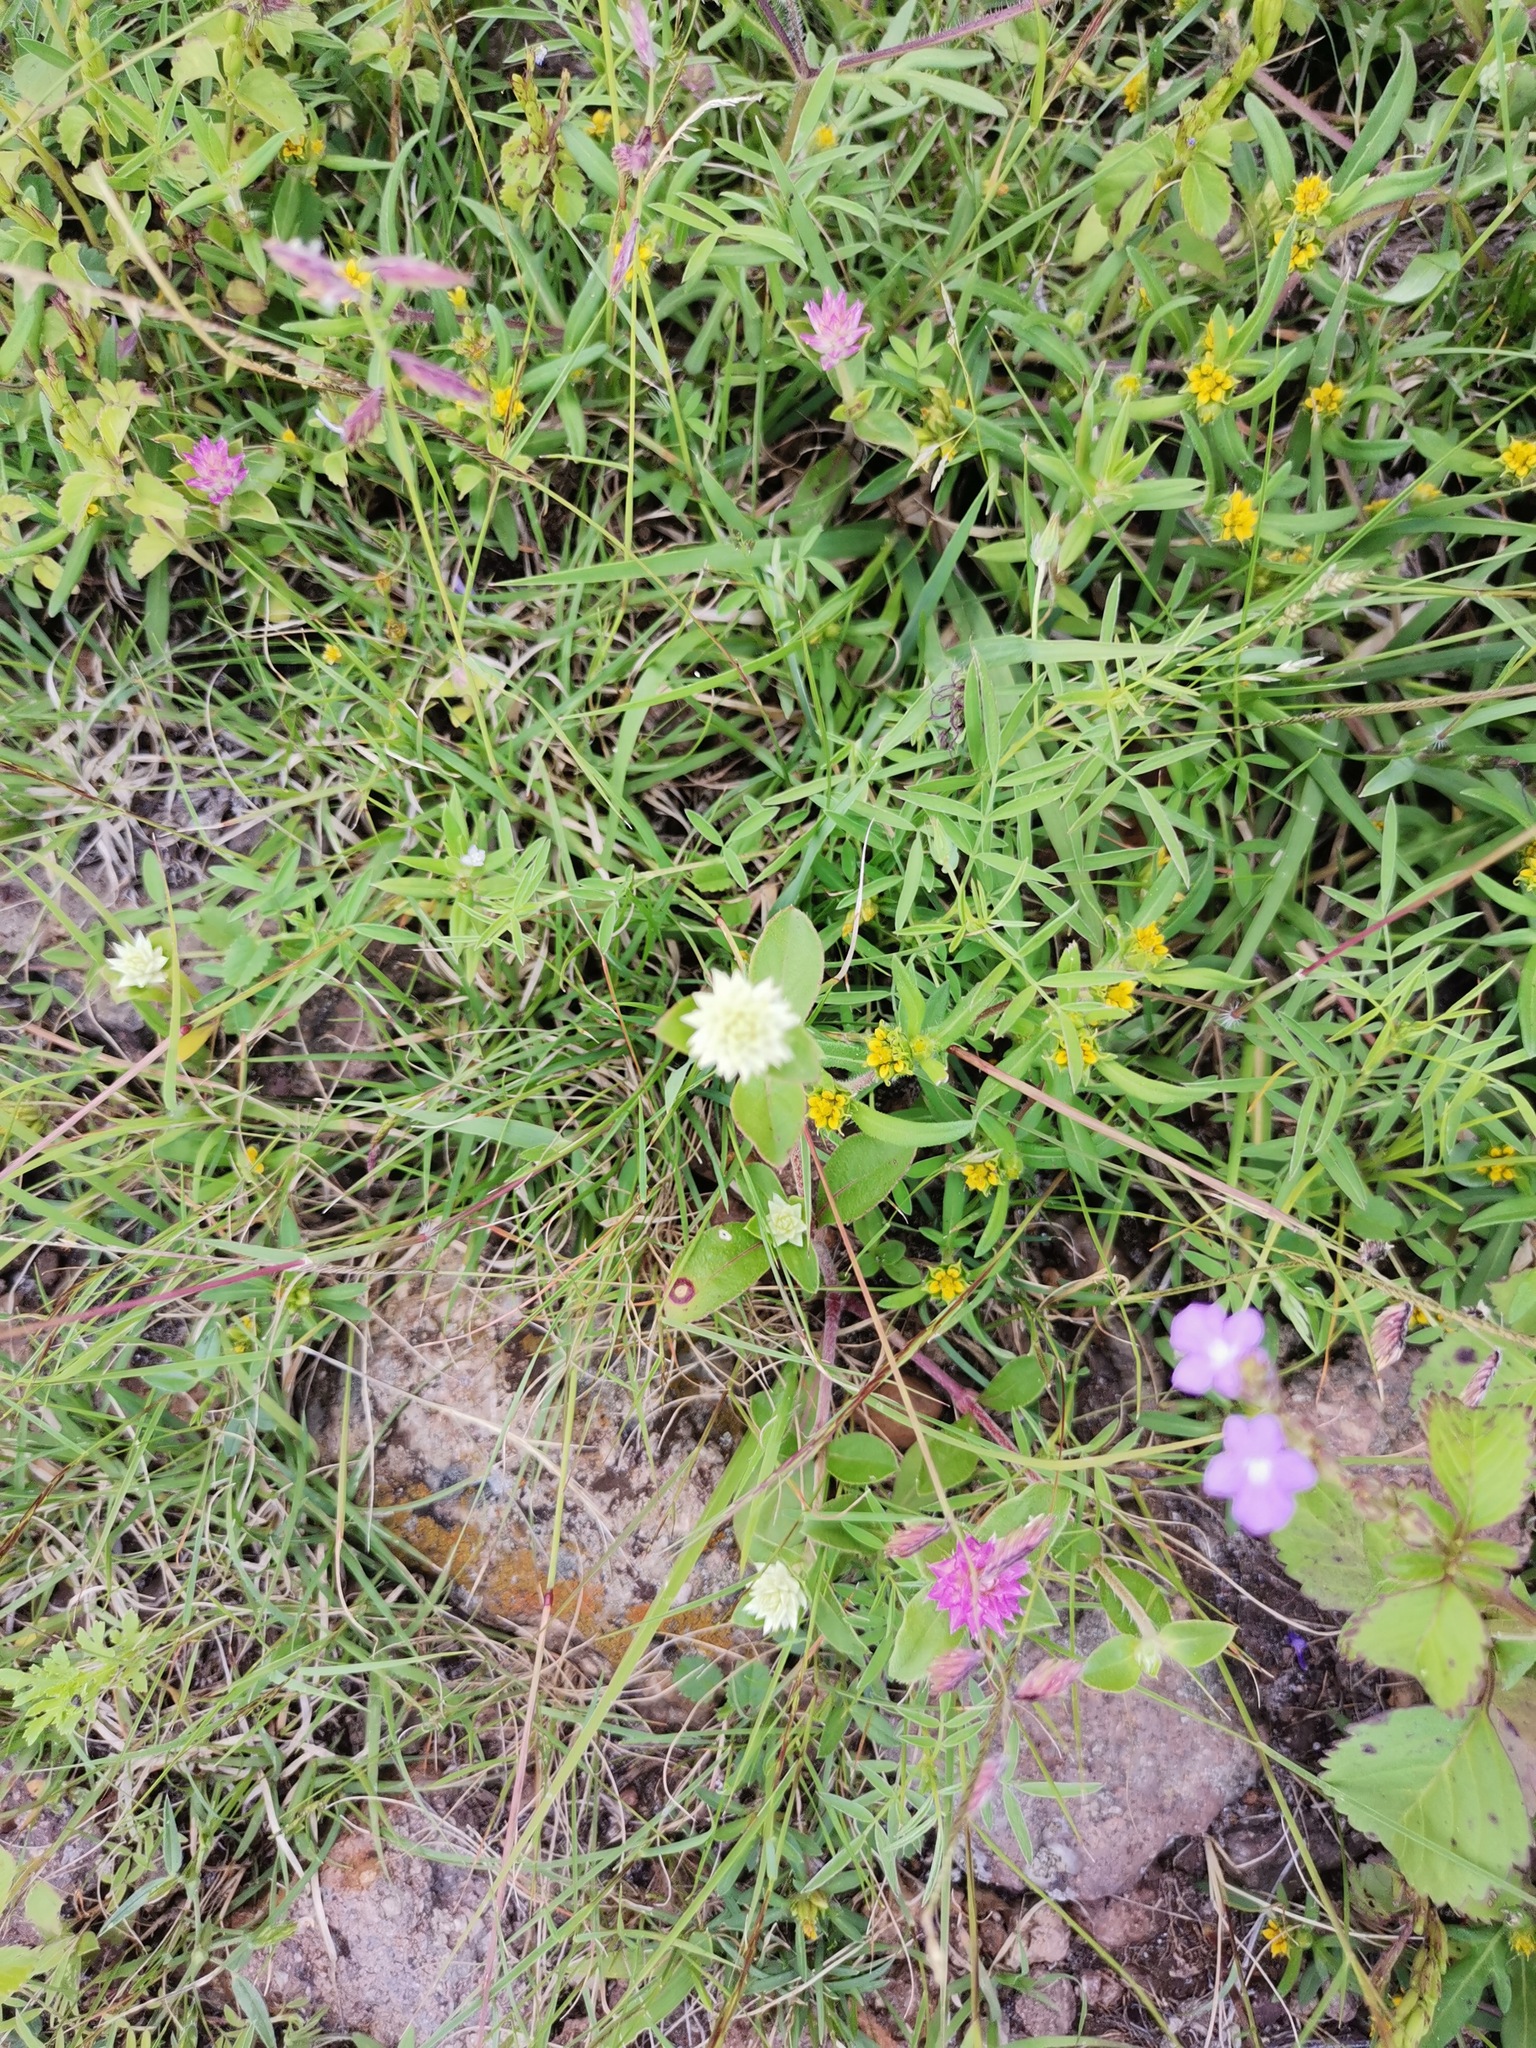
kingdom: Plantae
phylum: Tracheophyta
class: Magnoliopsida
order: Caryophyllales
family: Amaranthaceae
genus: Gomphrena
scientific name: Gomphrena serrata
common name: Arrasa con todo
